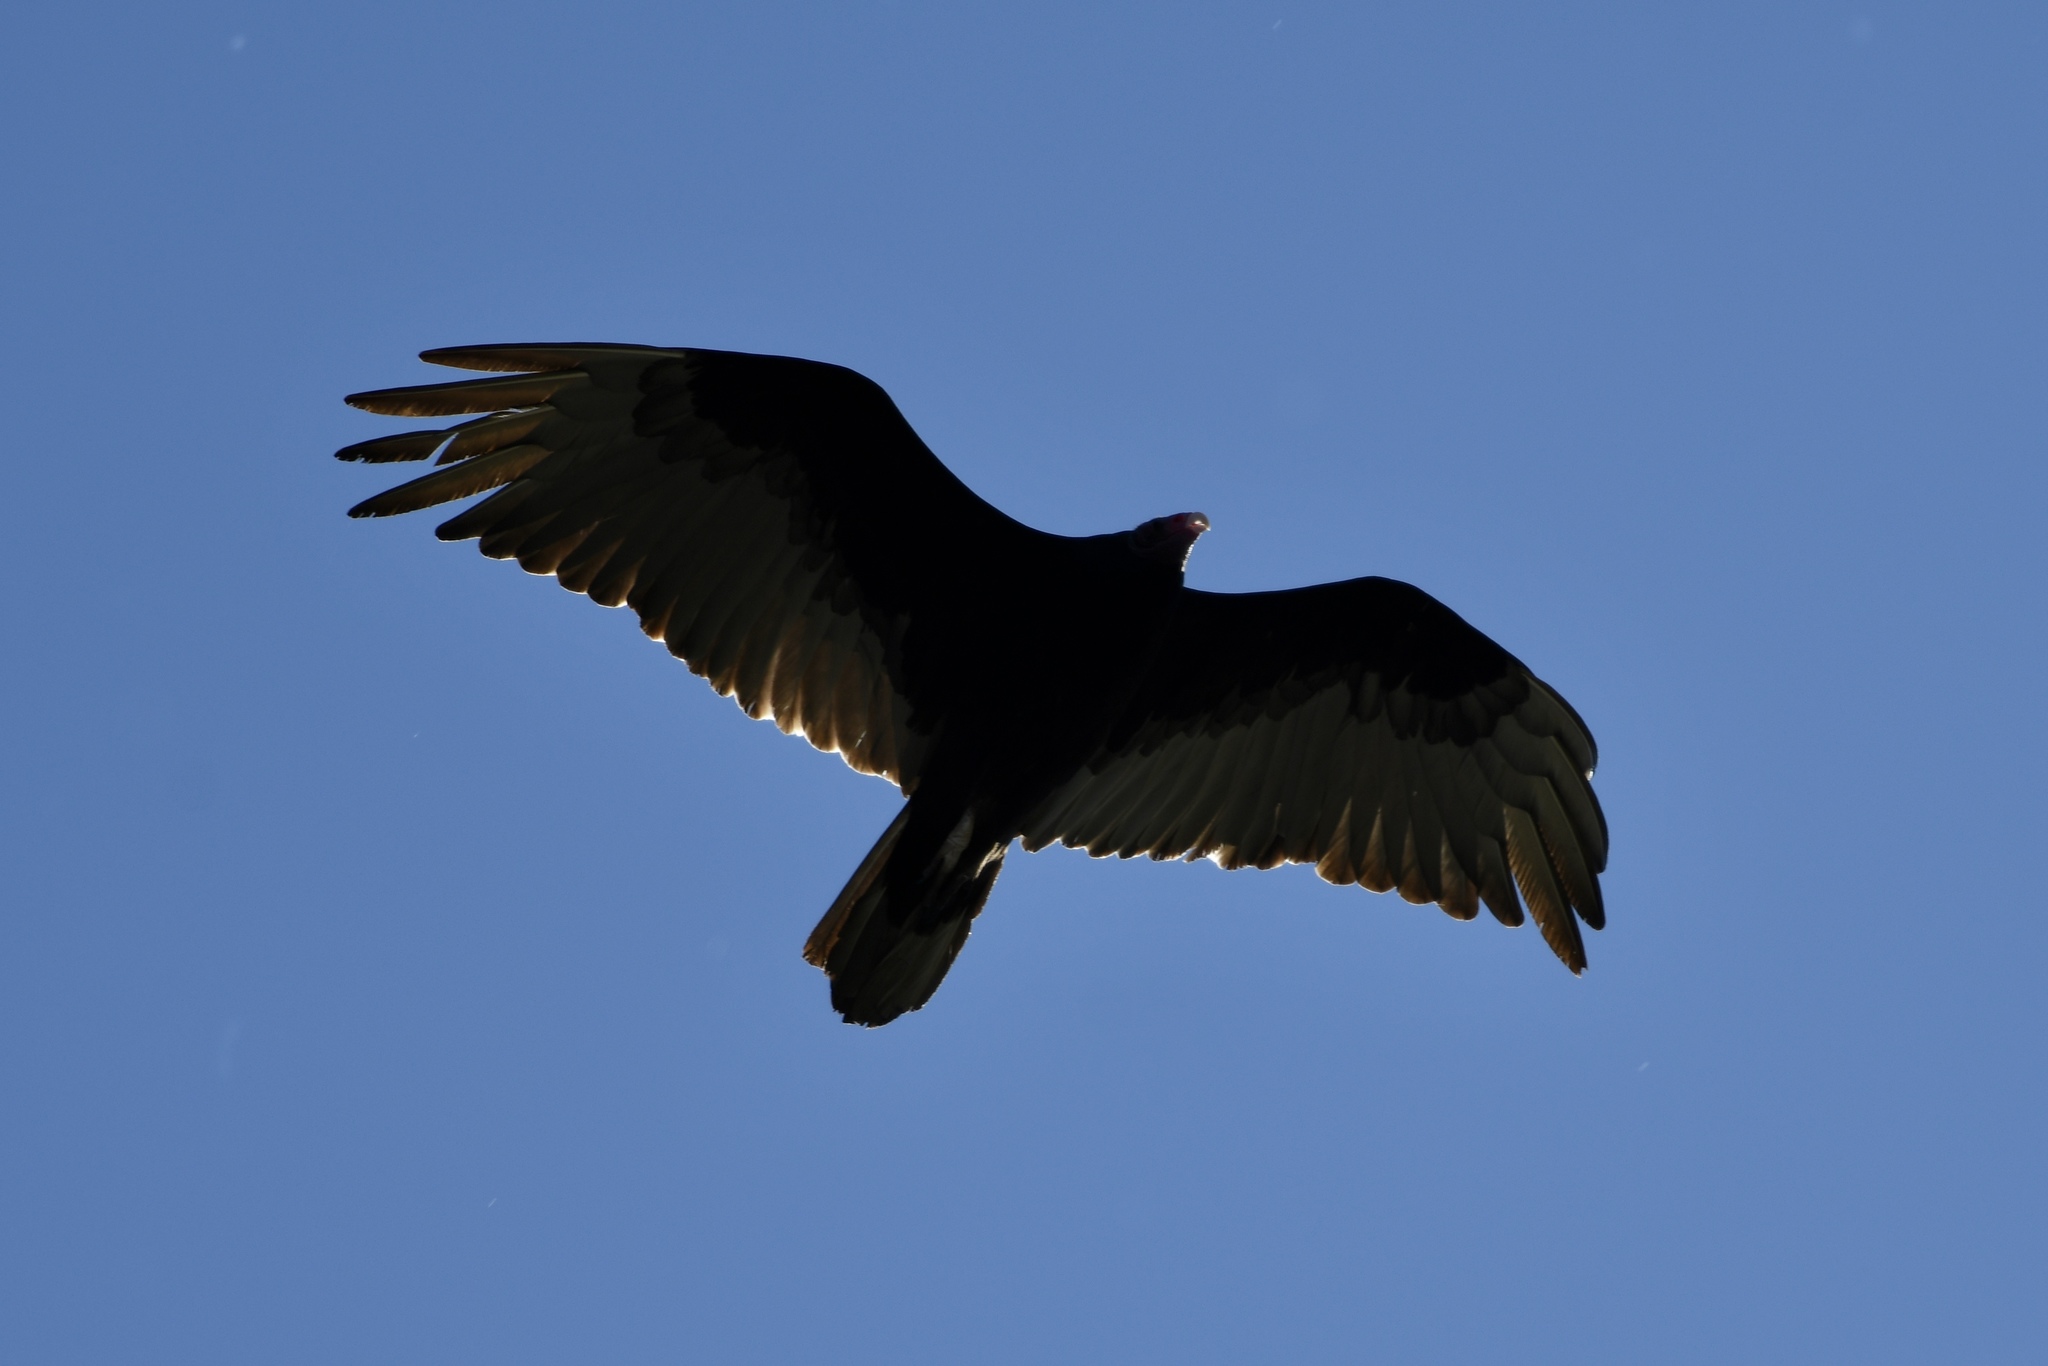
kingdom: Animalia
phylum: Chordata
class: Aves
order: Accipitriformes
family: Cathartidae
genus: Cathartes
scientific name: Cathartes aura
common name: Turkey vulture
